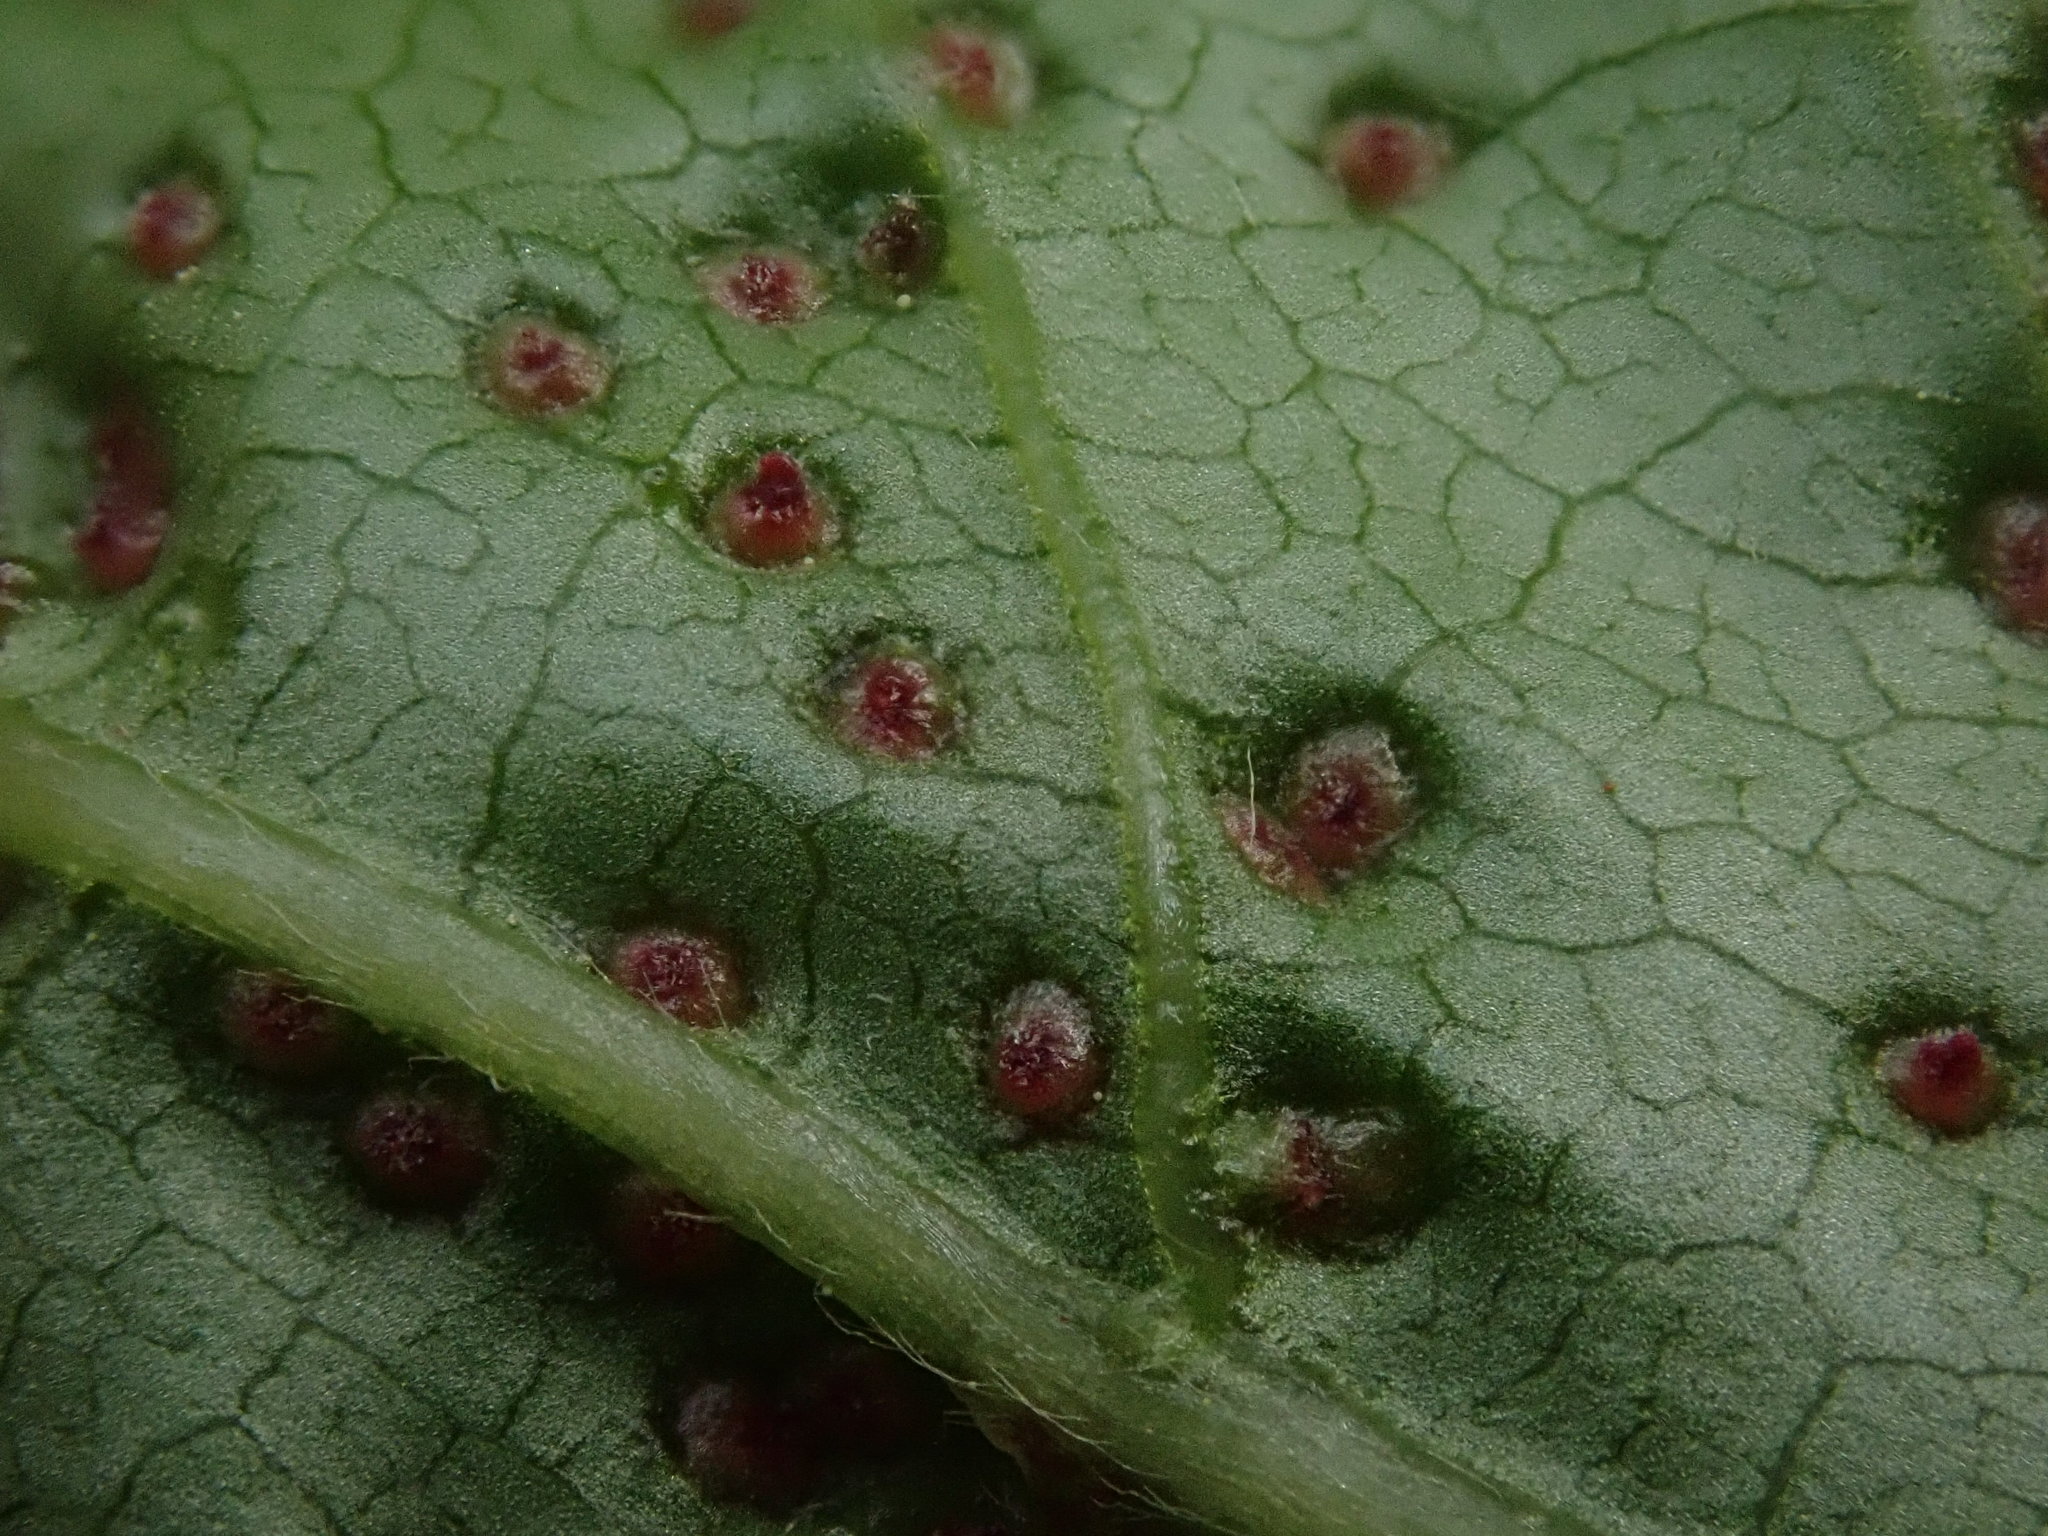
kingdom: Animalia
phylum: Arthropoda
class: Arachnida
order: Trombidiformes
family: Eriophyidae
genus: Aceria
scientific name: Aceria
